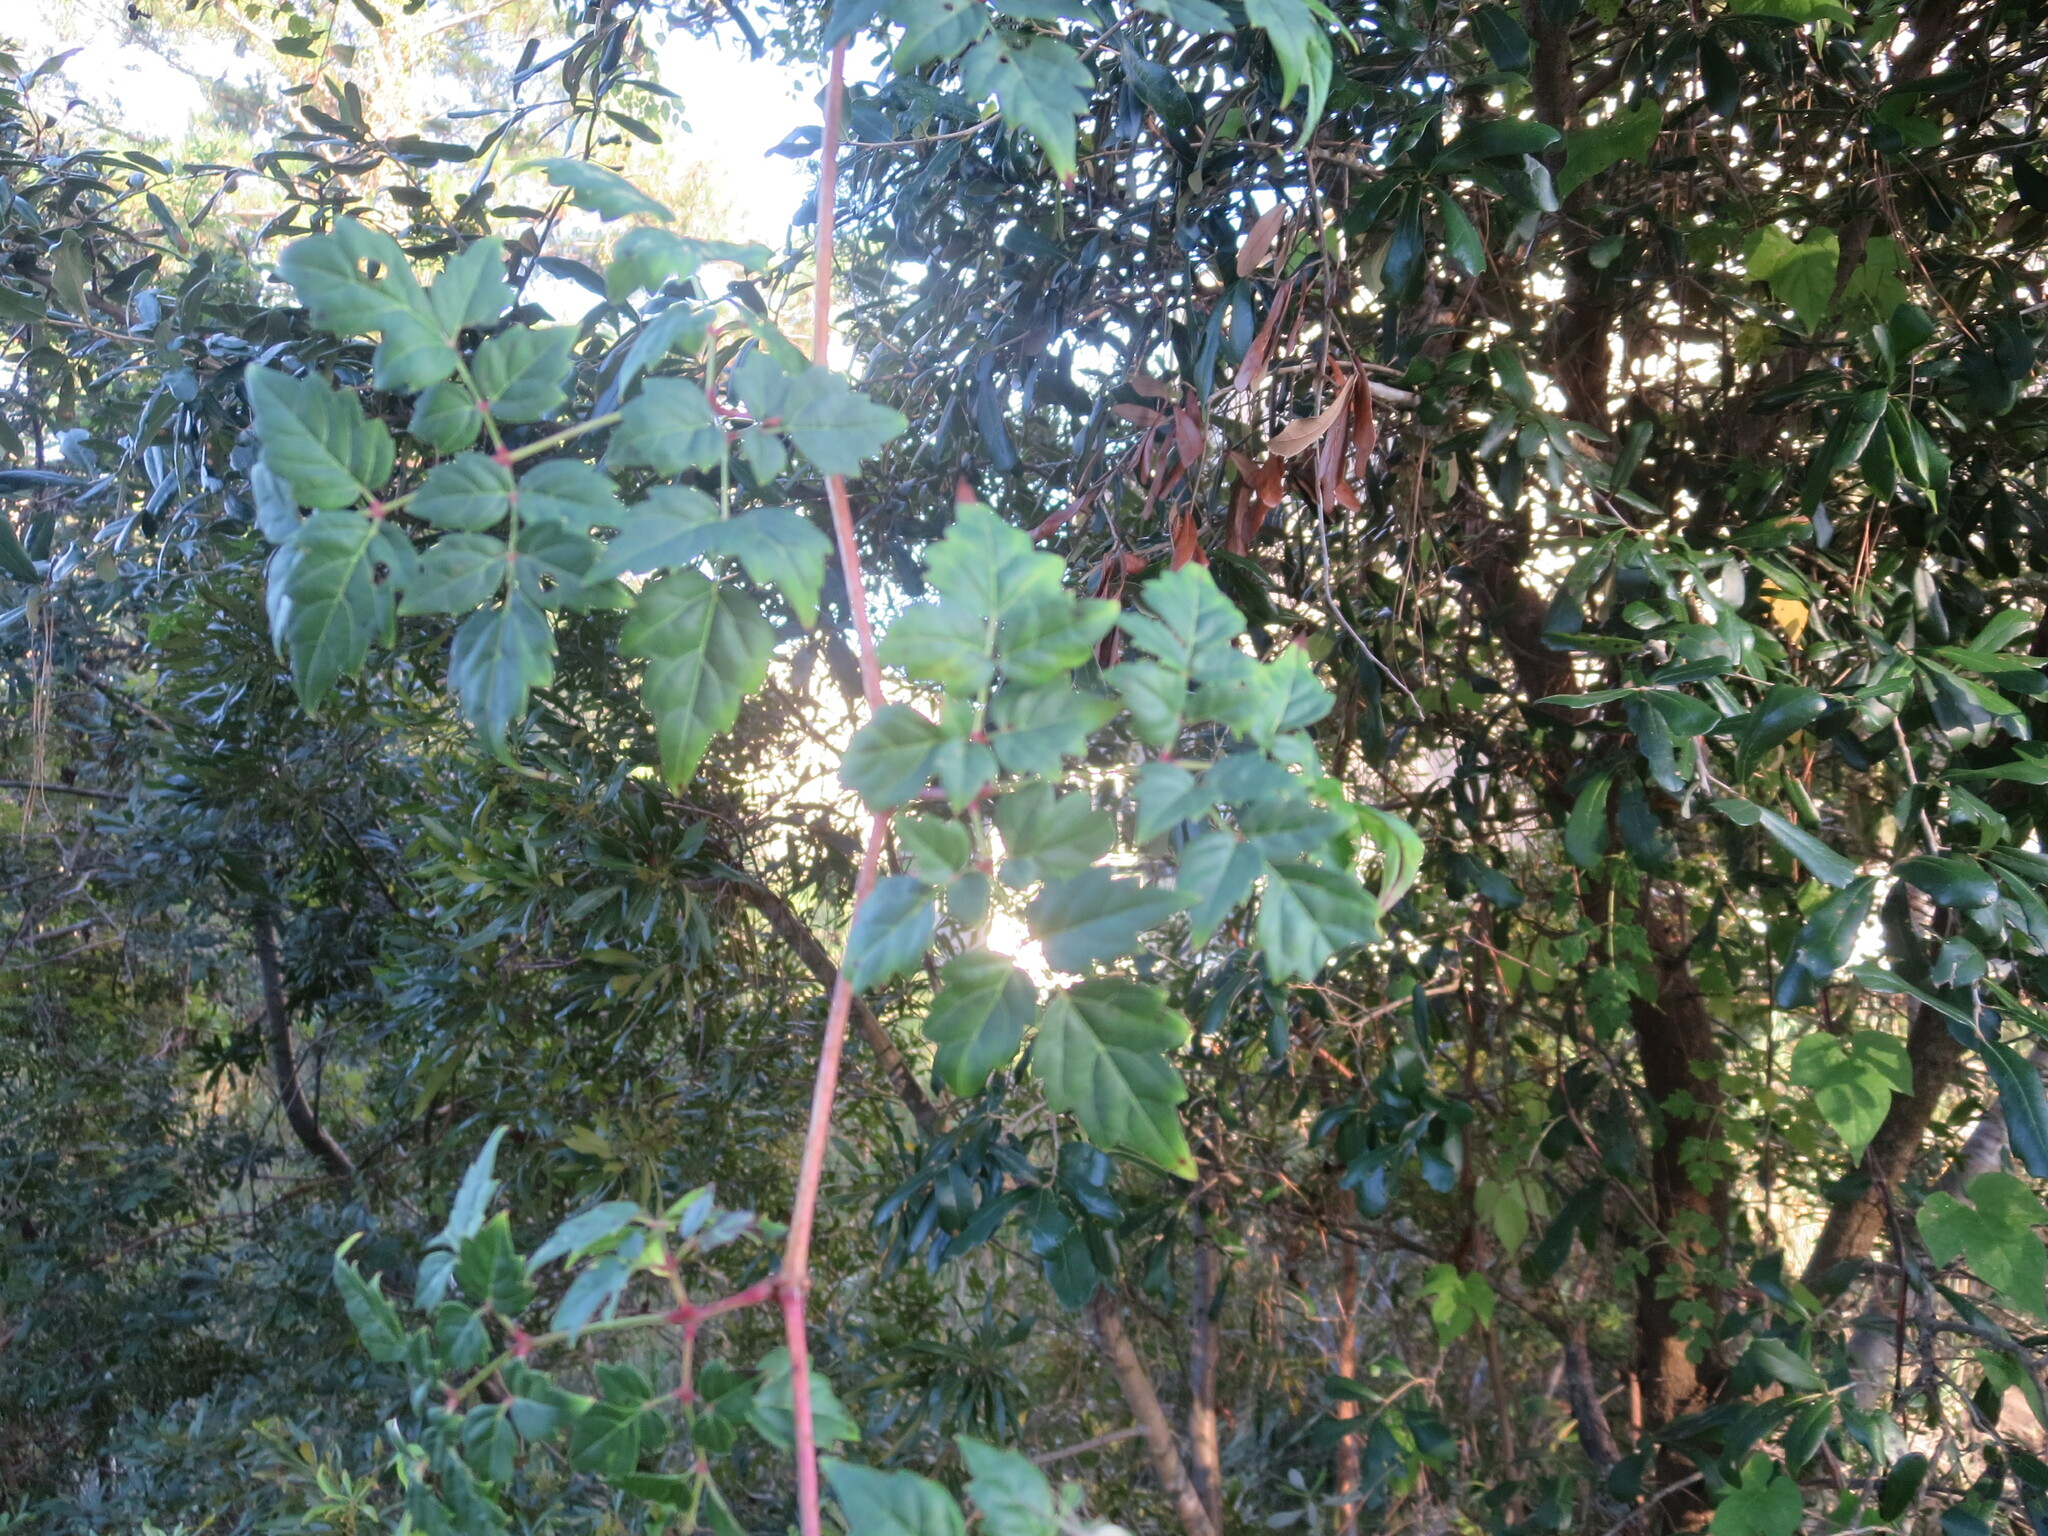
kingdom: Plantae
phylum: Tracheophyta
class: Magnoliopsida
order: Vitales
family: Vitaceae
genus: Nekemias
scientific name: Nekemias arborea
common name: Peppervine
